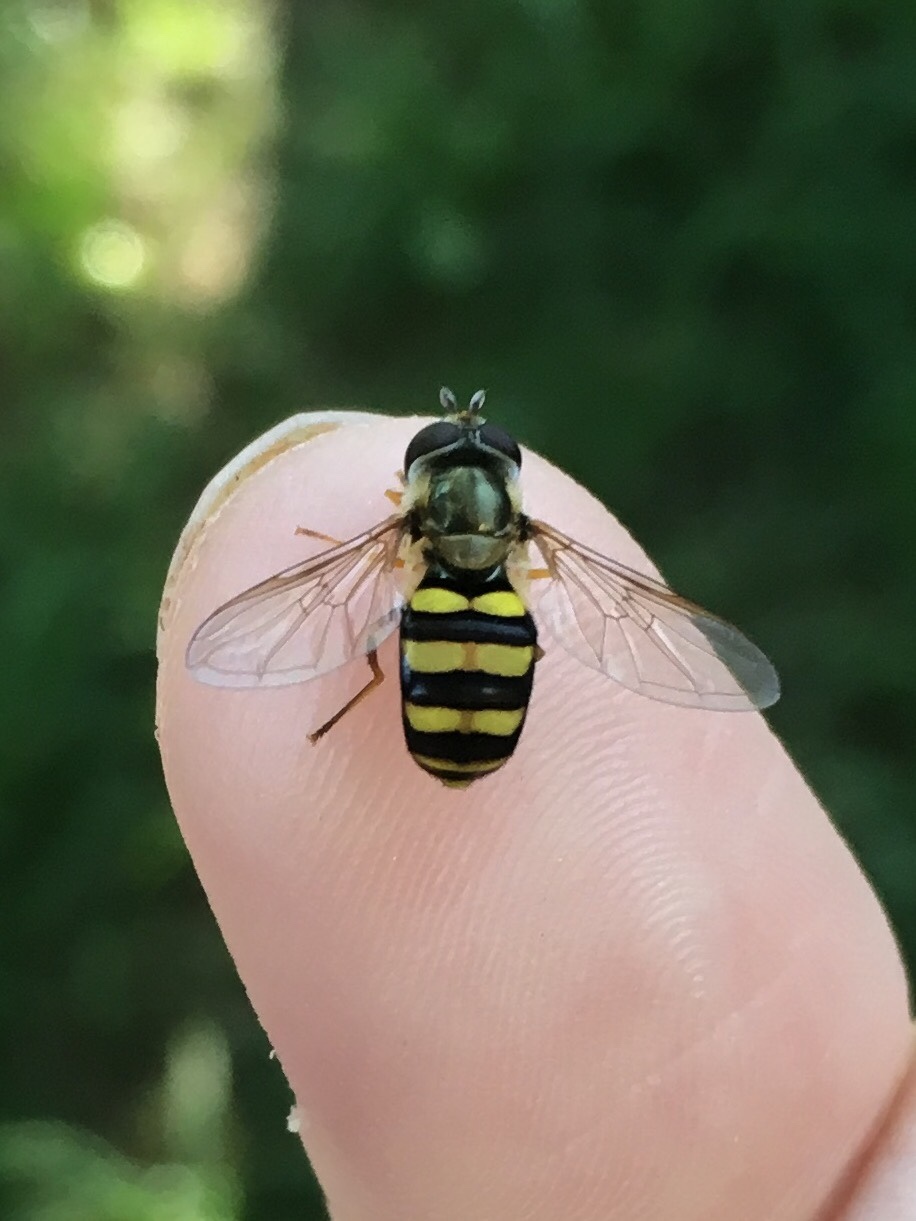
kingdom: Animalia
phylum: Arthropoda
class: Insecta
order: Diptera
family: Syrphidae
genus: Eupeodes
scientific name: Eupeodes
